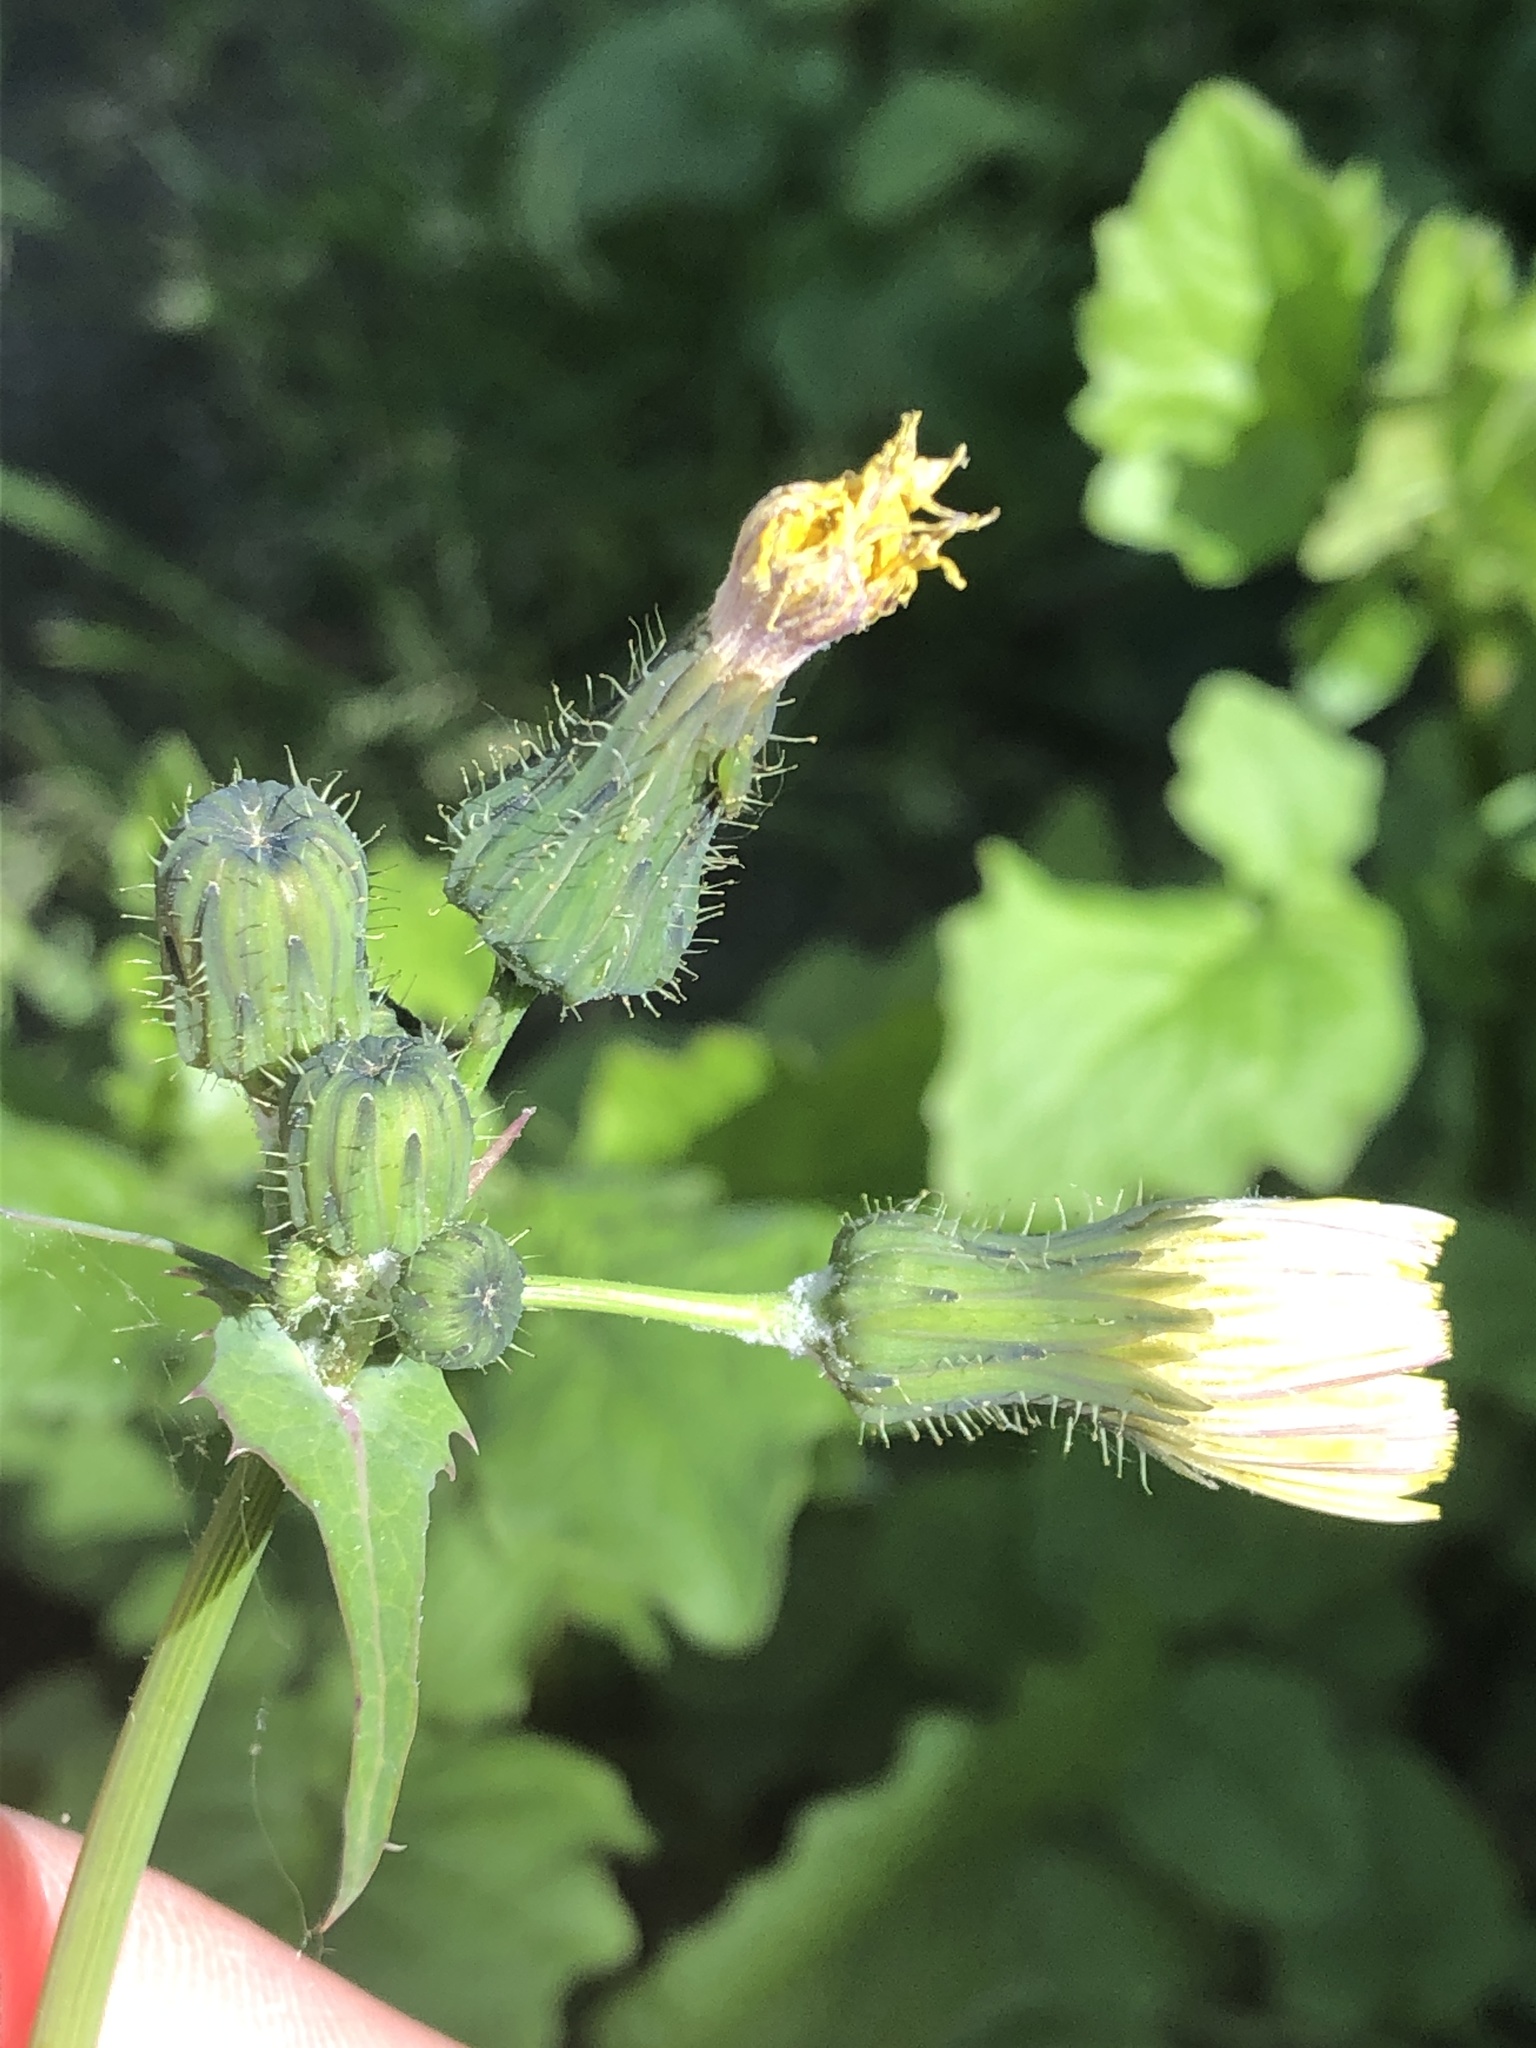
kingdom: Plantae
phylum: Tracheophyta
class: Magnoliopsida
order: Asterales
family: Asteraceae
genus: Sonchus
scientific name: Sonchus oleraceus
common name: Common sowthistle
